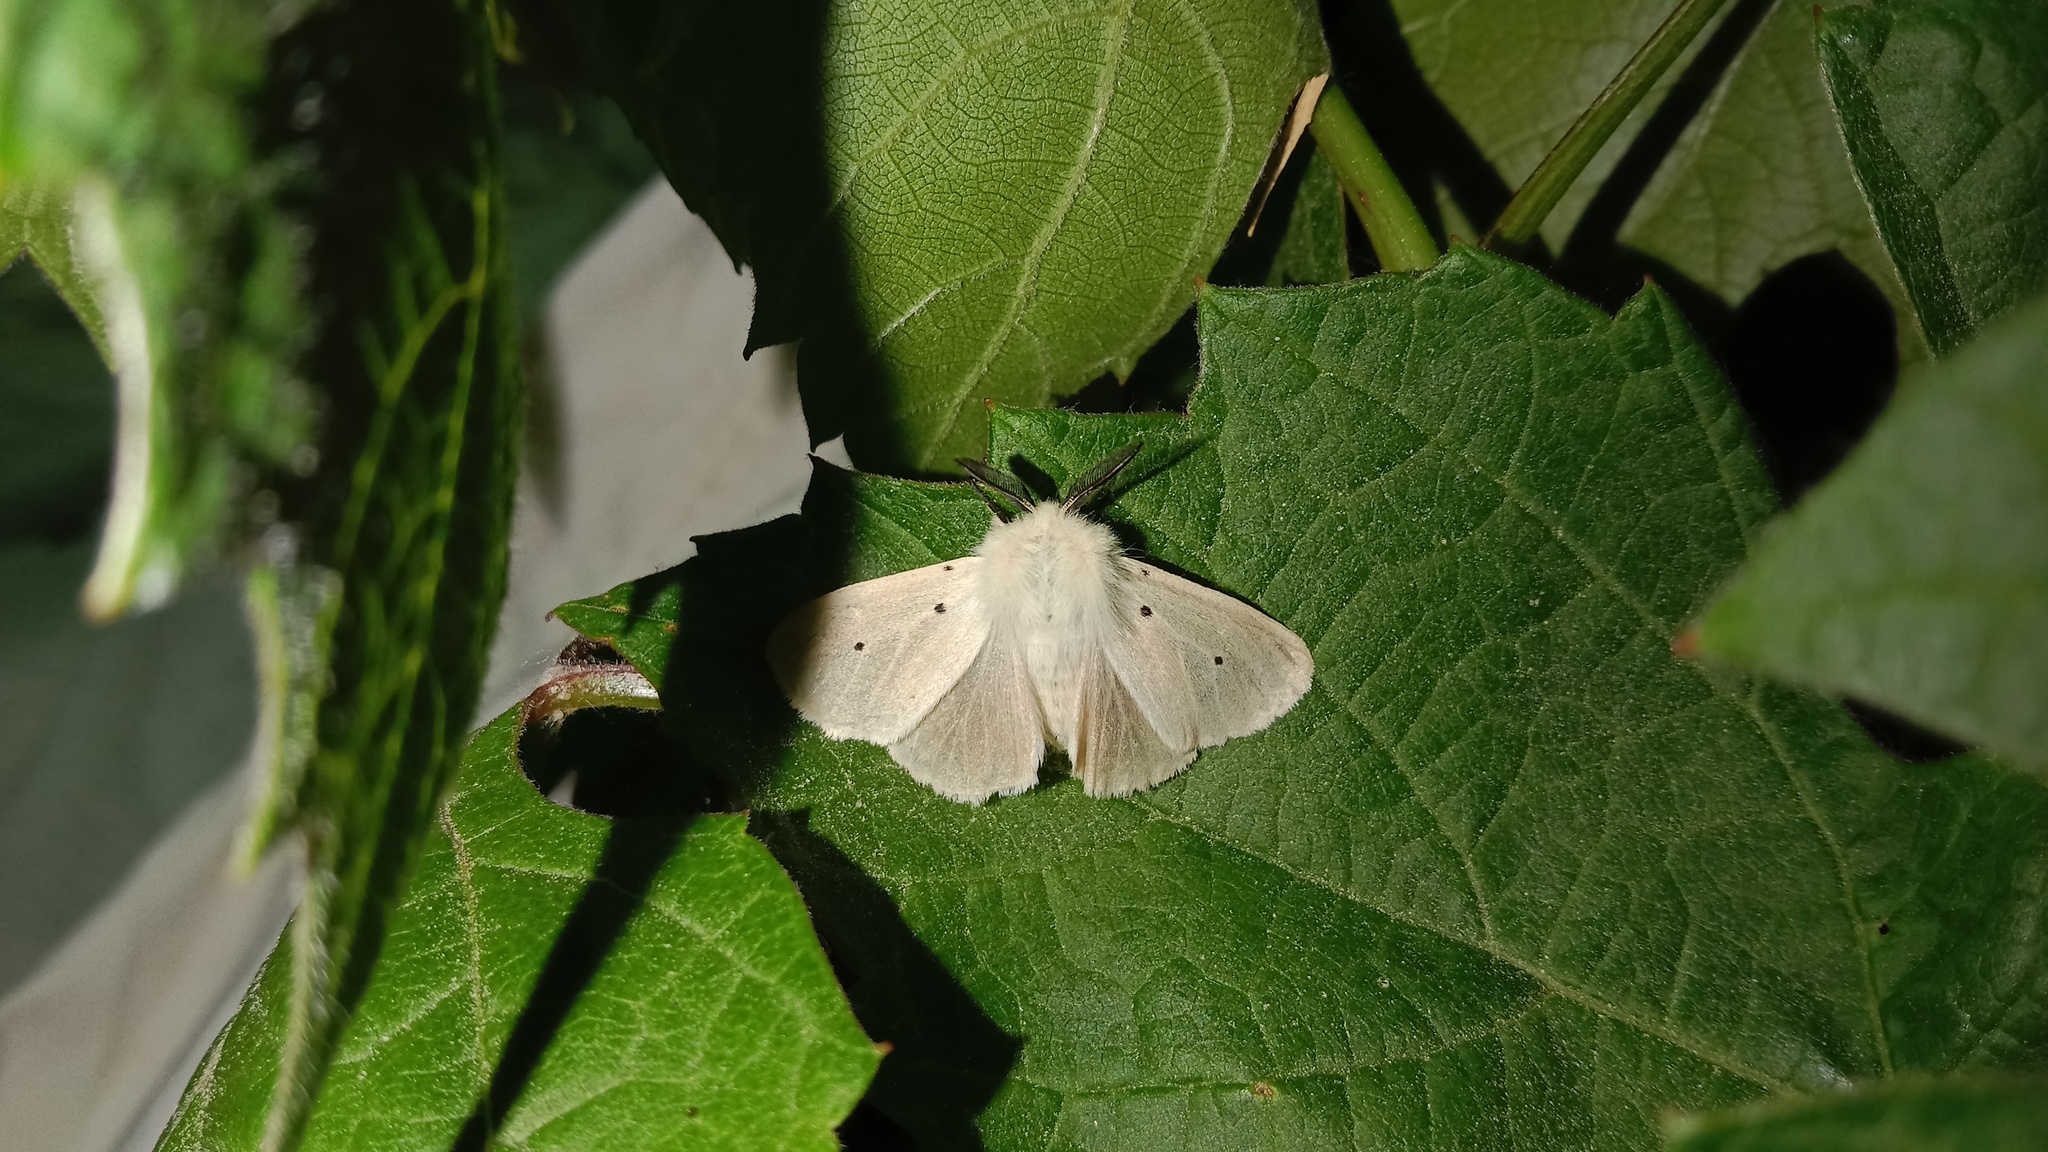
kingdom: Animalia
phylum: Arthropoda
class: Insecta
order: Lepidoptera
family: Erebidae
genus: Diaphora
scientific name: Diaphora mendica
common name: Muslin moth
